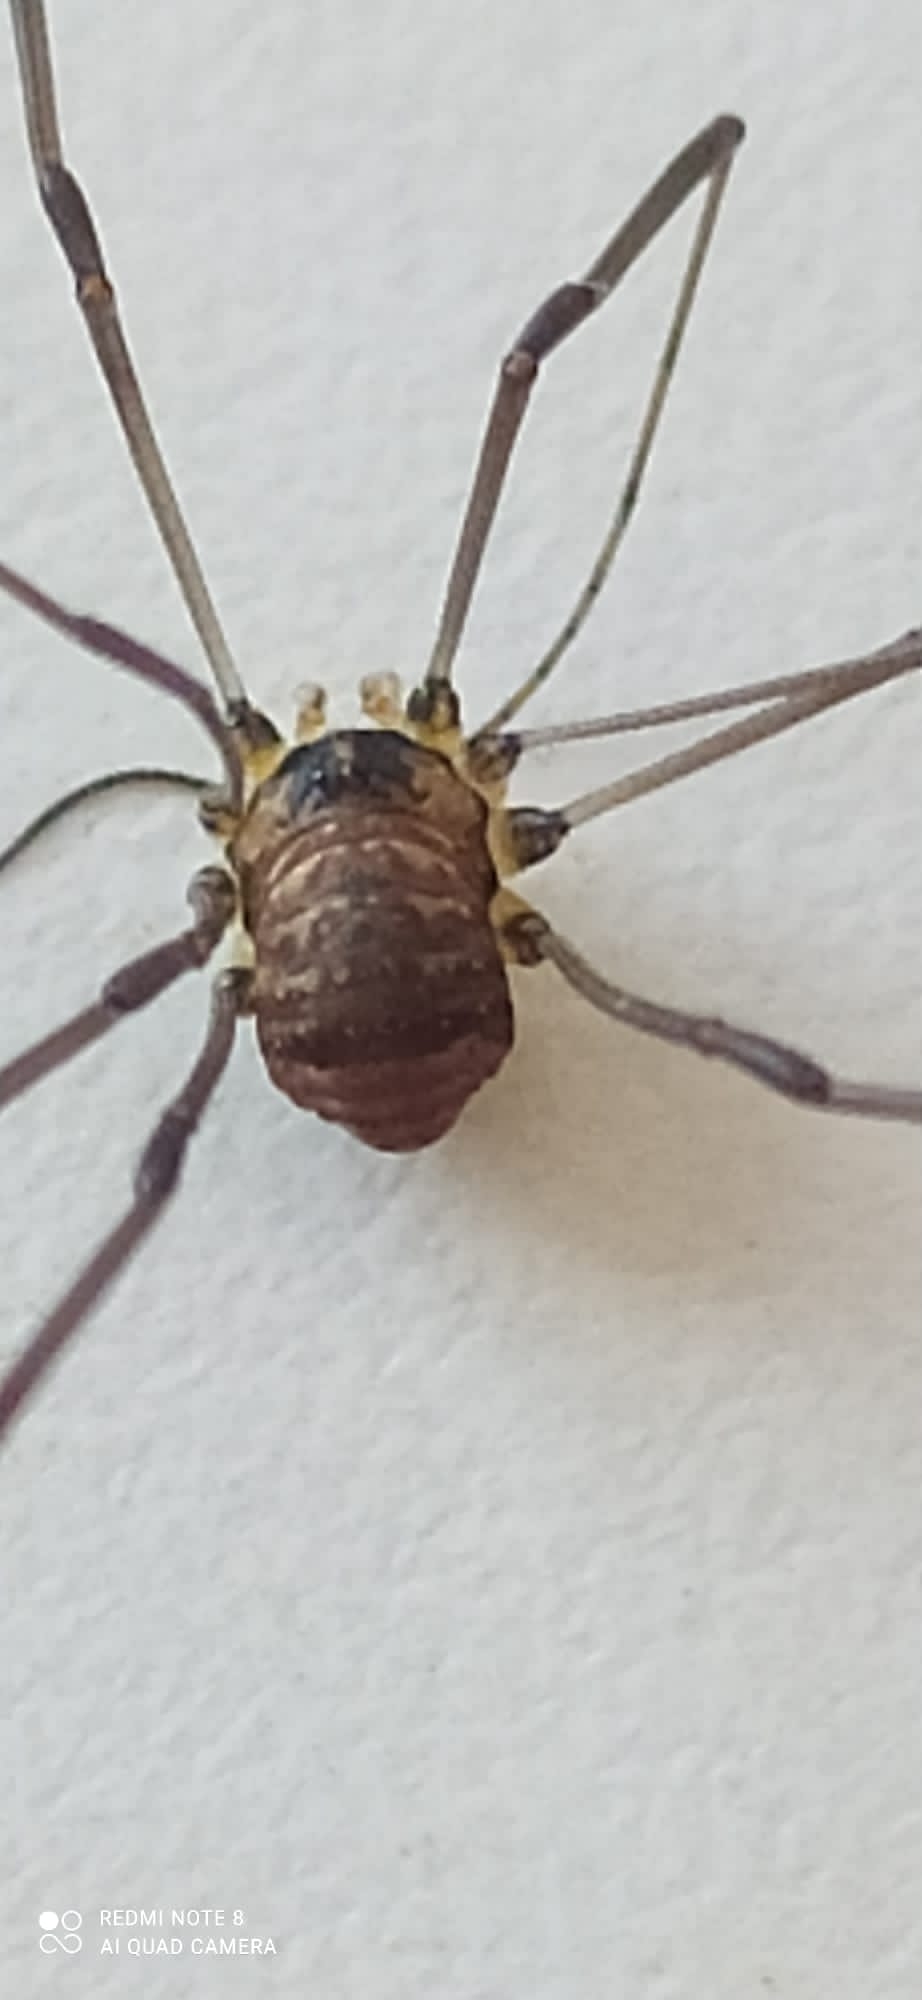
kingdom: Animalia
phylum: Arthropoda
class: Arachnida
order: Opiliones
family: Sclerosomatidae
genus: Leiobunum
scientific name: Leiobunum blackwalli
